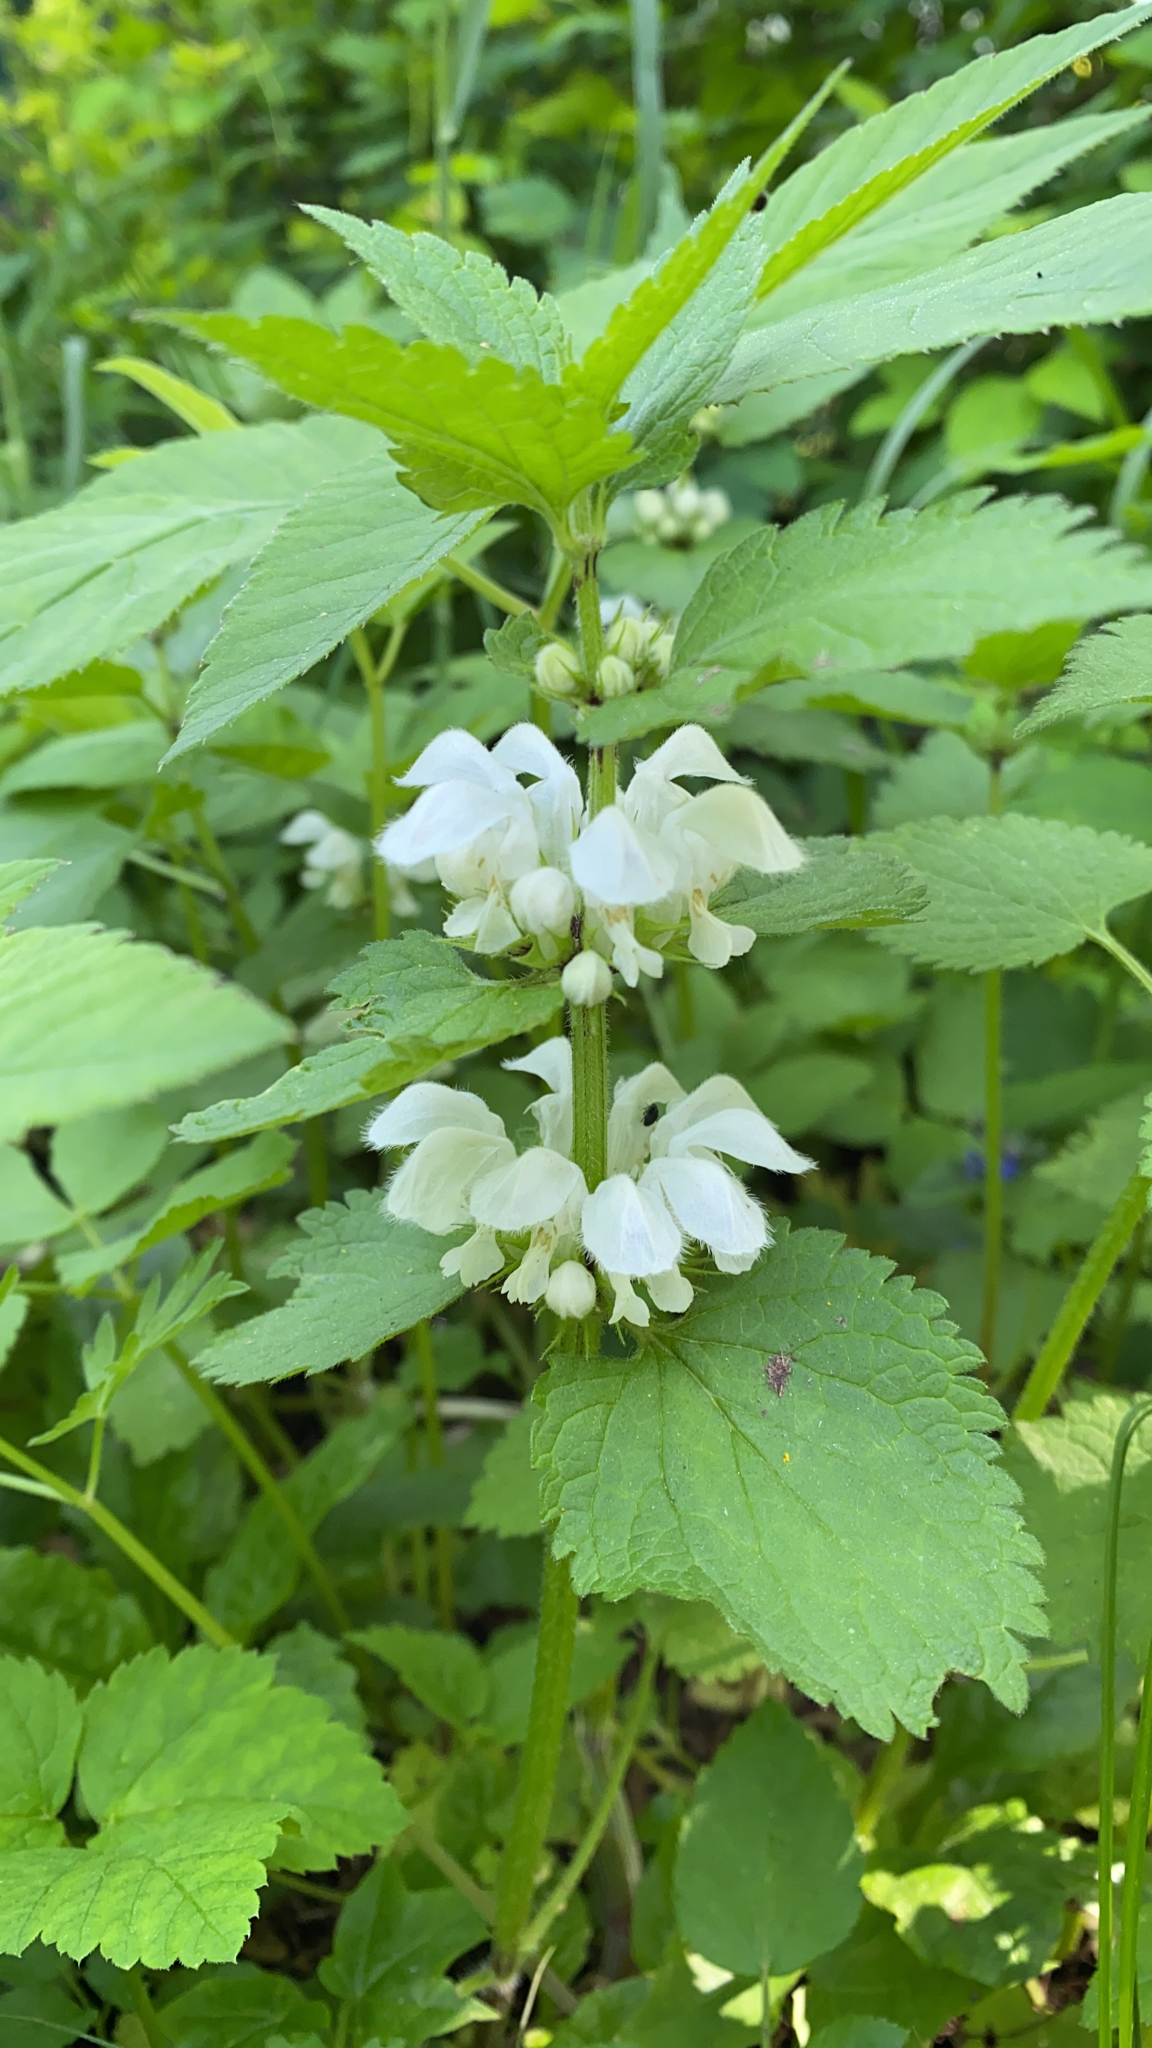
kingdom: Plantae
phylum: Tracheophyta
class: Magnoliopsida
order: Lamiales
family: Lamiaceae
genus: Lamium
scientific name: Lamium album
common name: White dead-nettle
